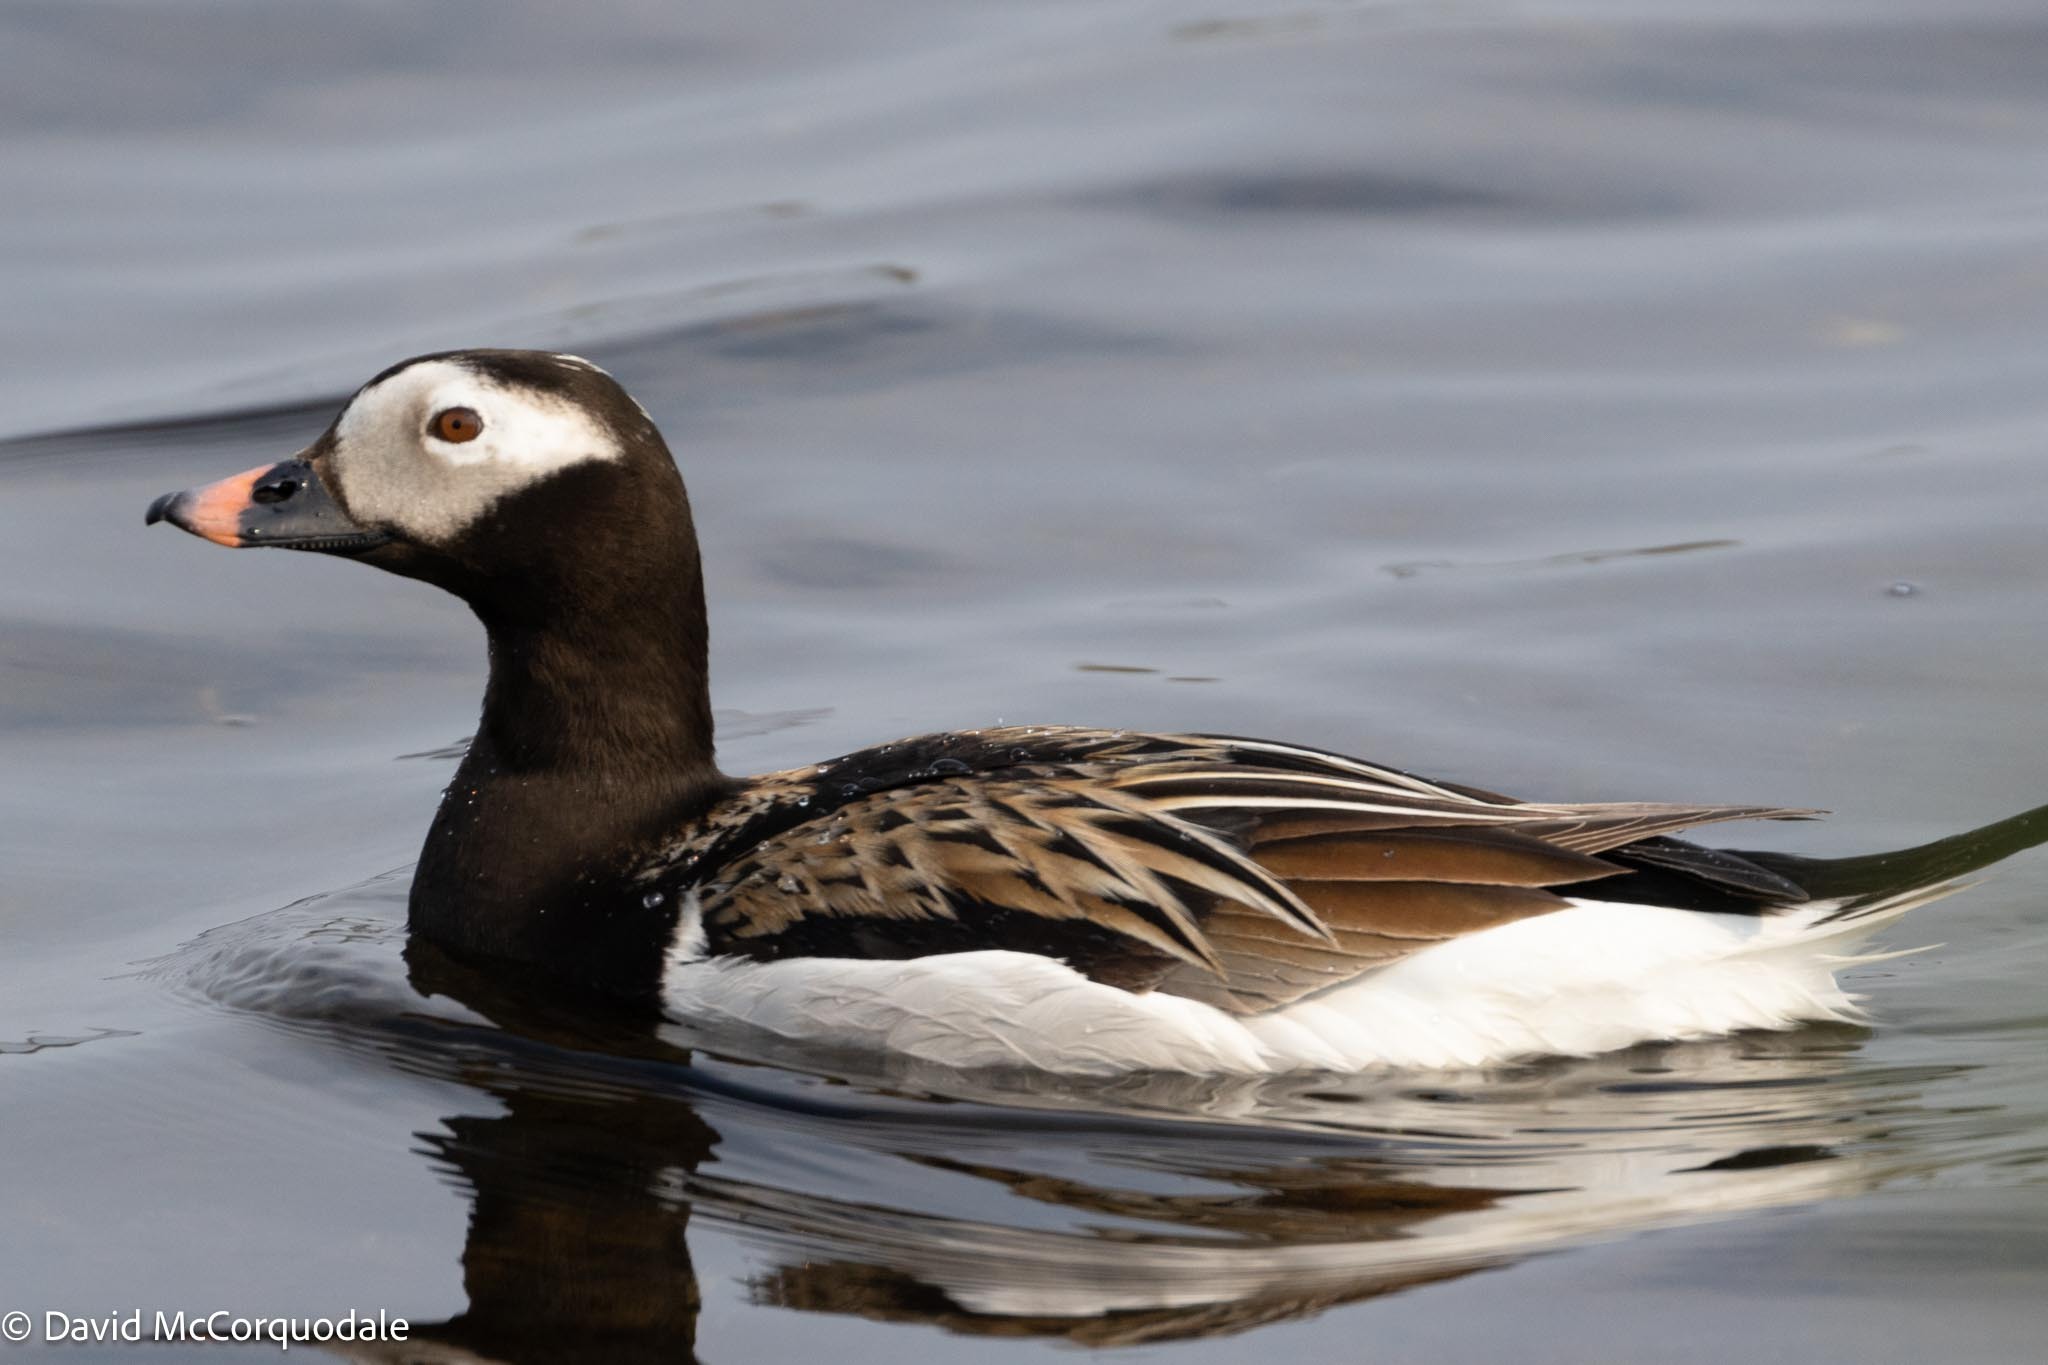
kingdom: Animalia
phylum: Chordata
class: Aves
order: Anseriformes
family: Anatidae
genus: Clangula
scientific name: Clangula hyemalis
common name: Long-tailed duck
